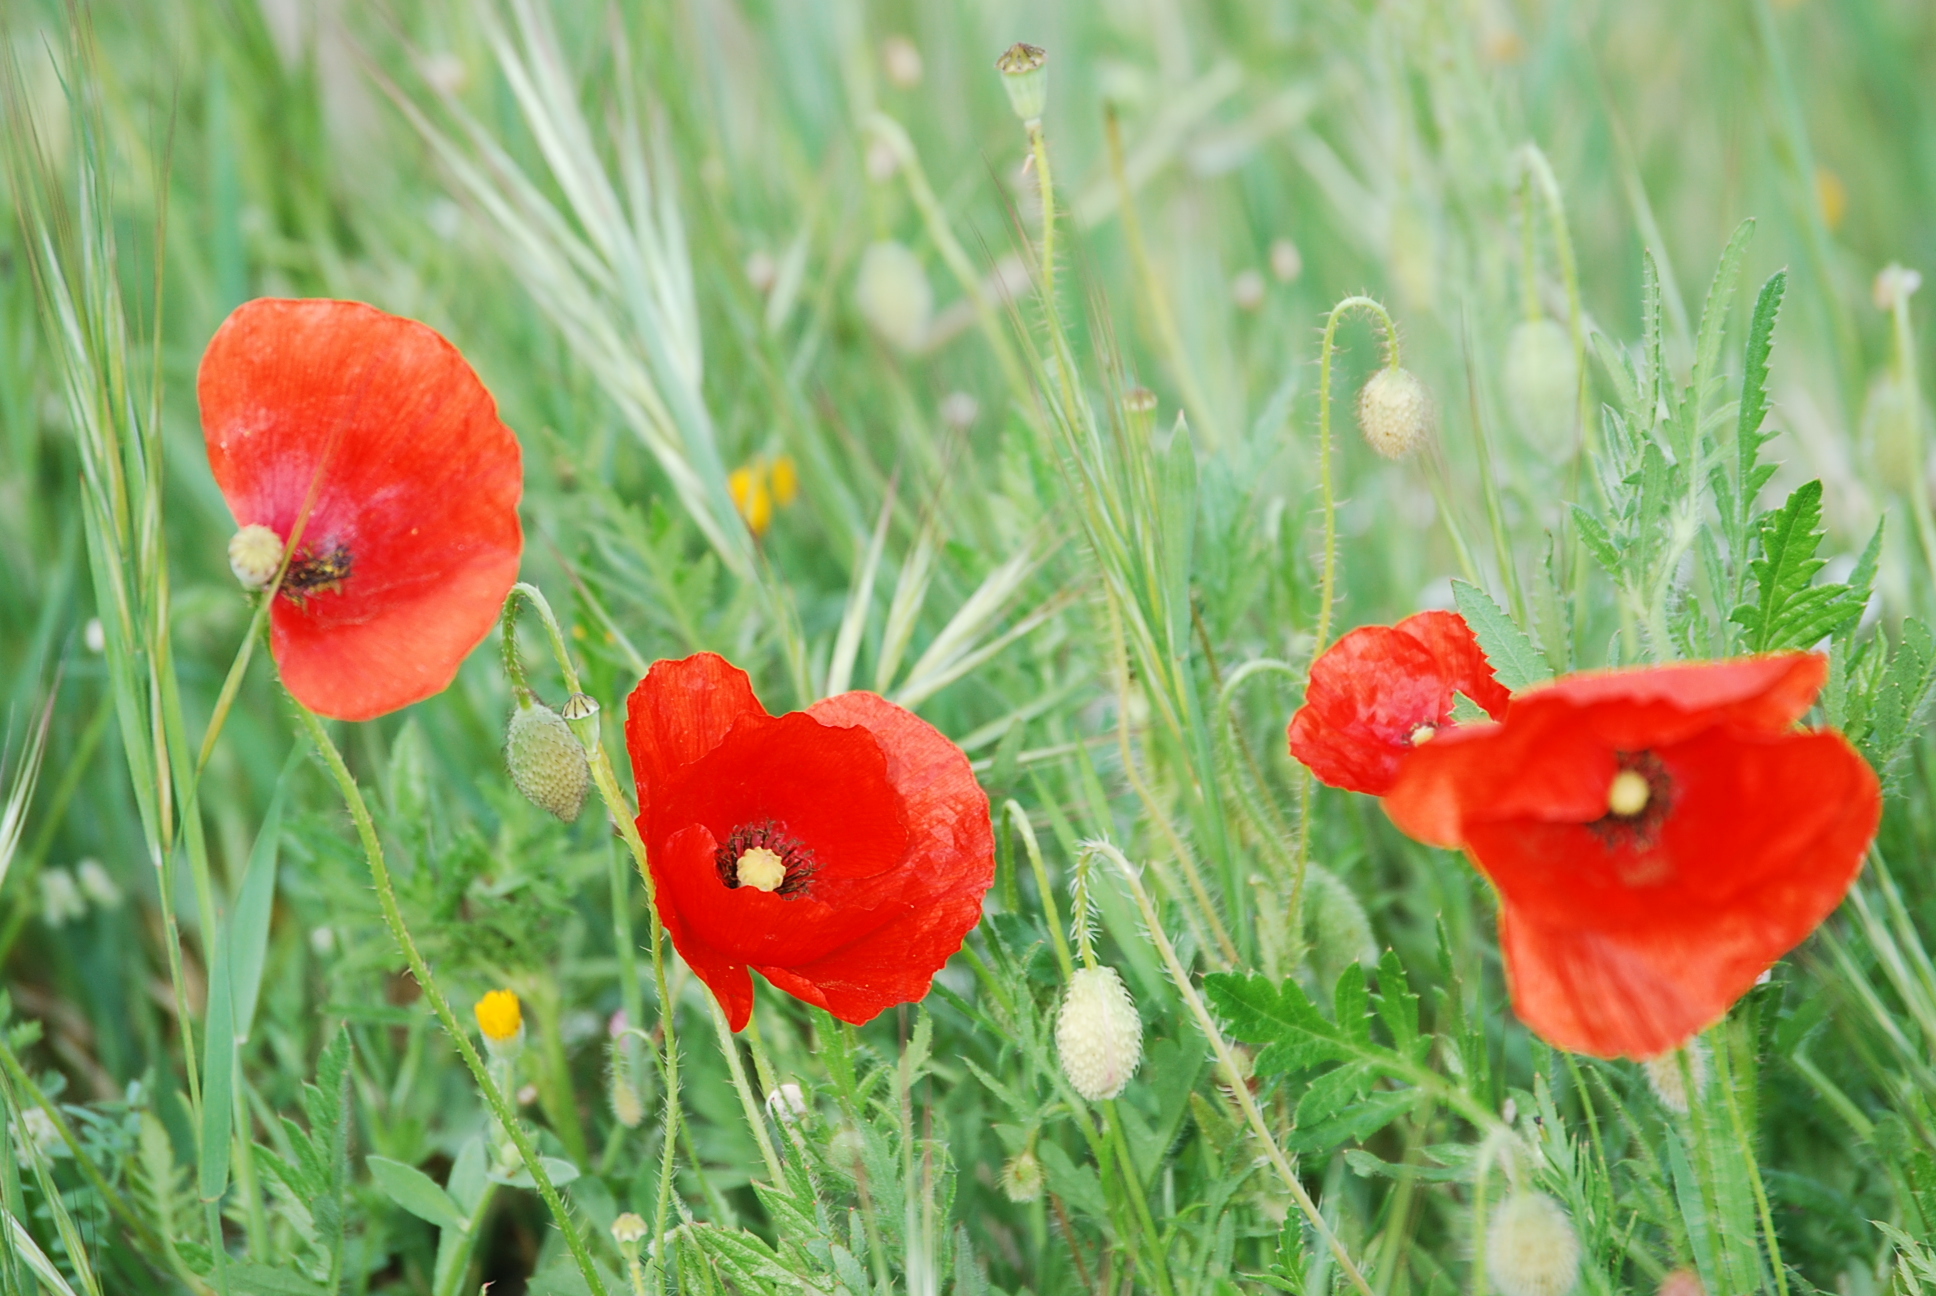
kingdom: Plantae
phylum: Tracheophyta
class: Magnoliopsida
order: Ranunculales
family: Papaveraceae
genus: Papaver
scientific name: Papaver rhoeas
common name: Corn poppy
